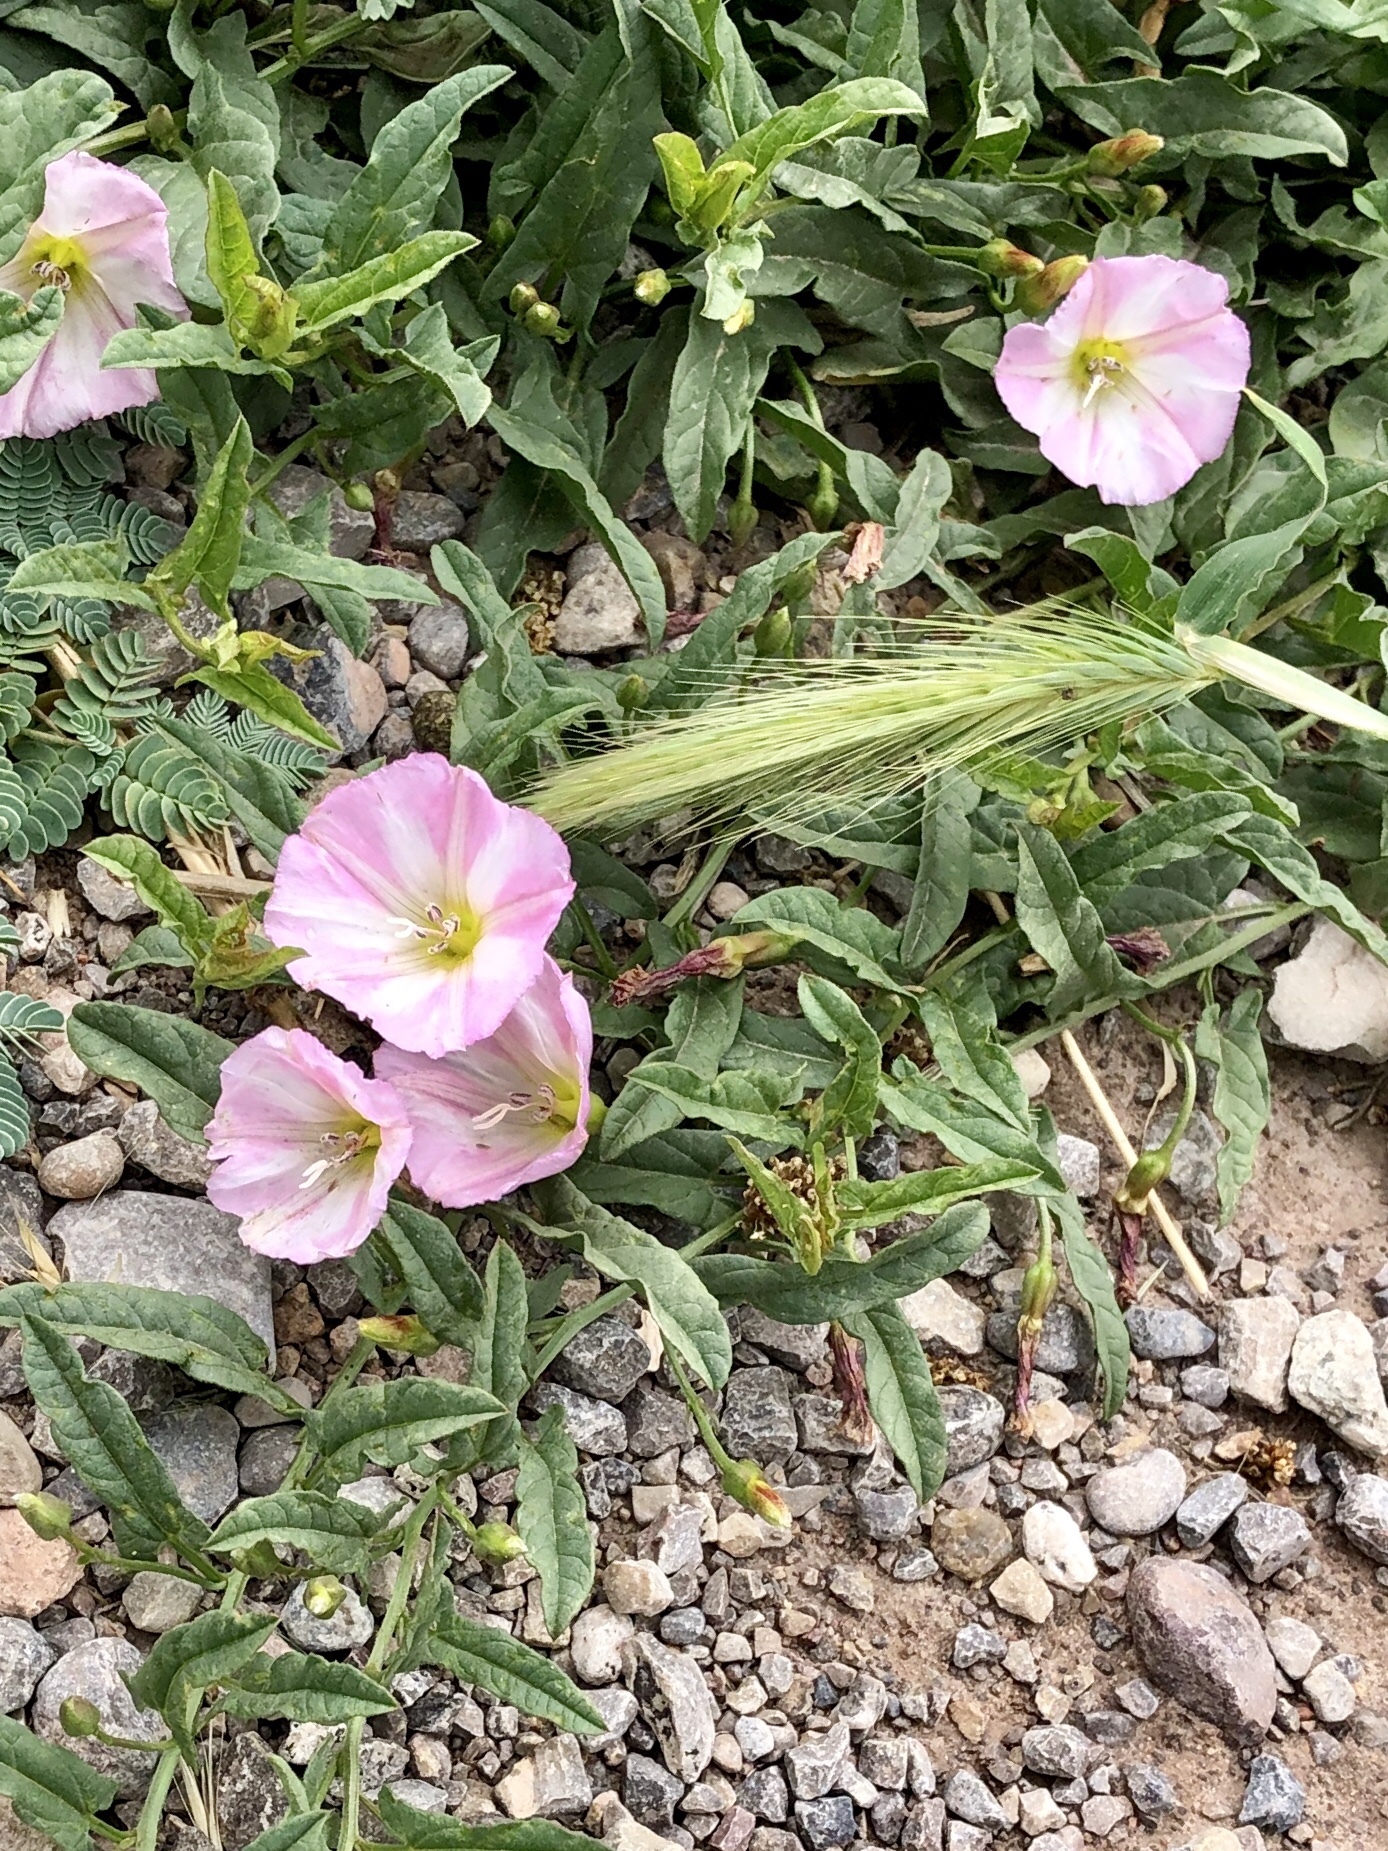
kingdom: Plantae
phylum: Tracheophyta
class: Magnoliopsida
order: Solanales
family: Convolvulaceae
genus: Convolvulus
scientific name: Convolvulus arvensis
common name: Field bindweed
